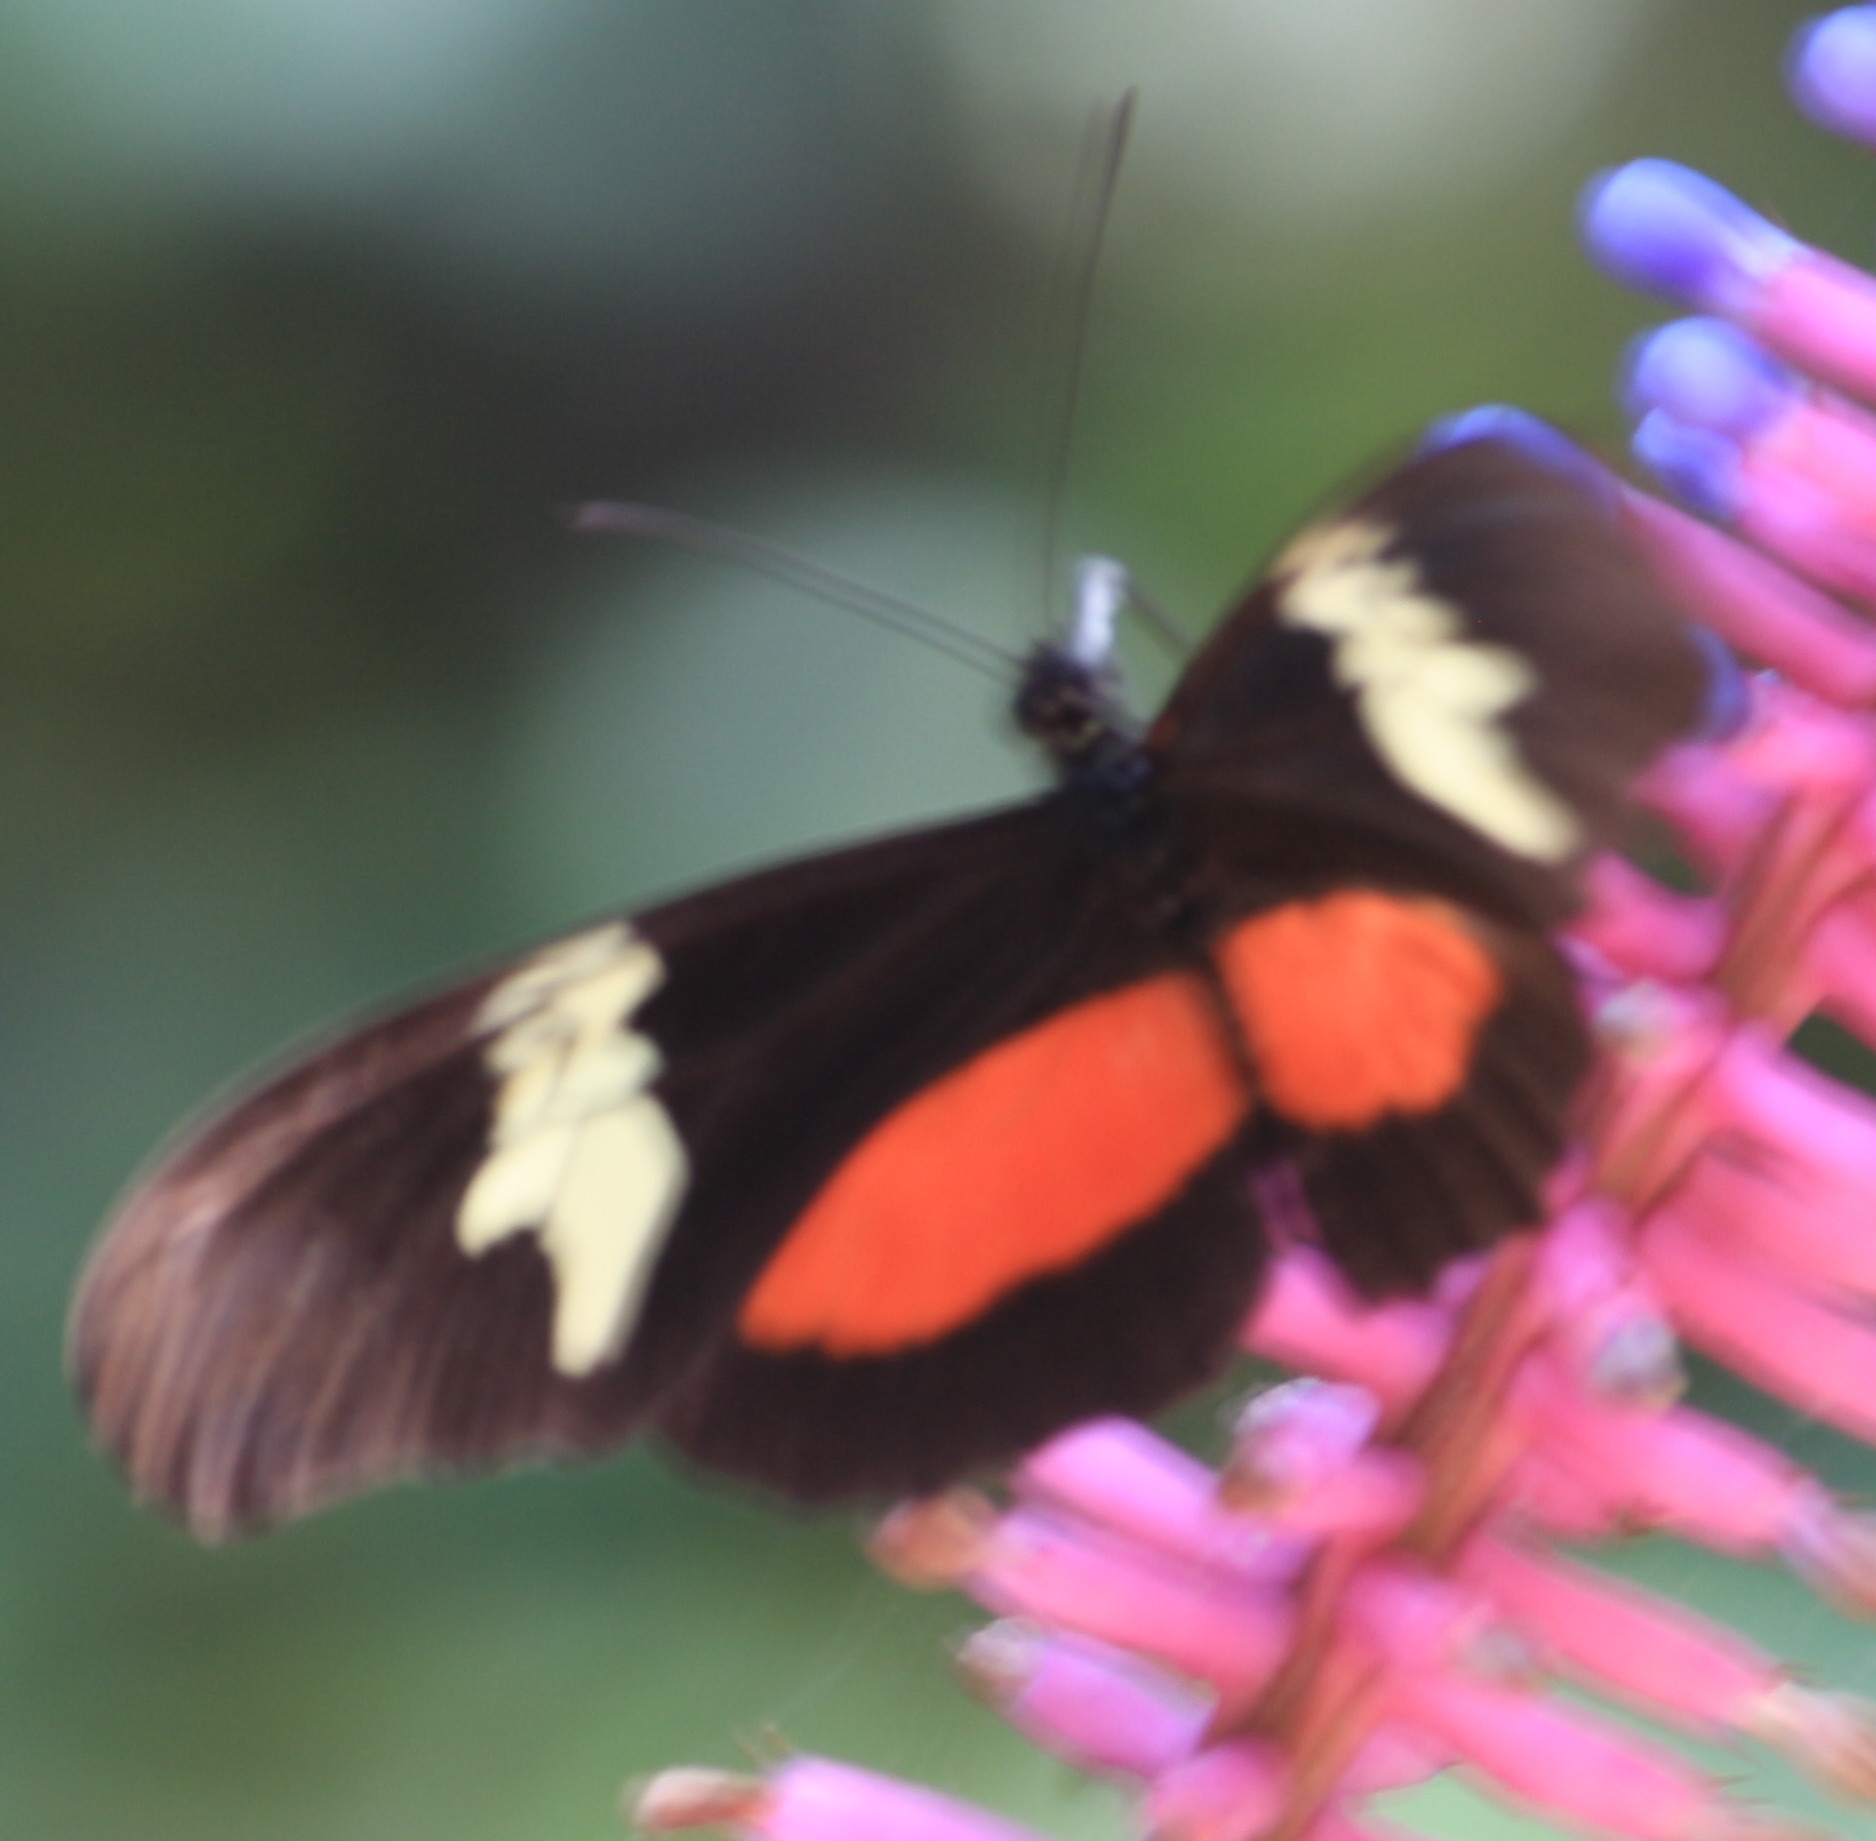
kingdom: Animalia
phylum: Arthropoda
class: Insecta
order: Lepidoptera
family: Nymphalidae
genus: Heliconius
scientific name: Heliconius hortense
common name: Mexican longwing
